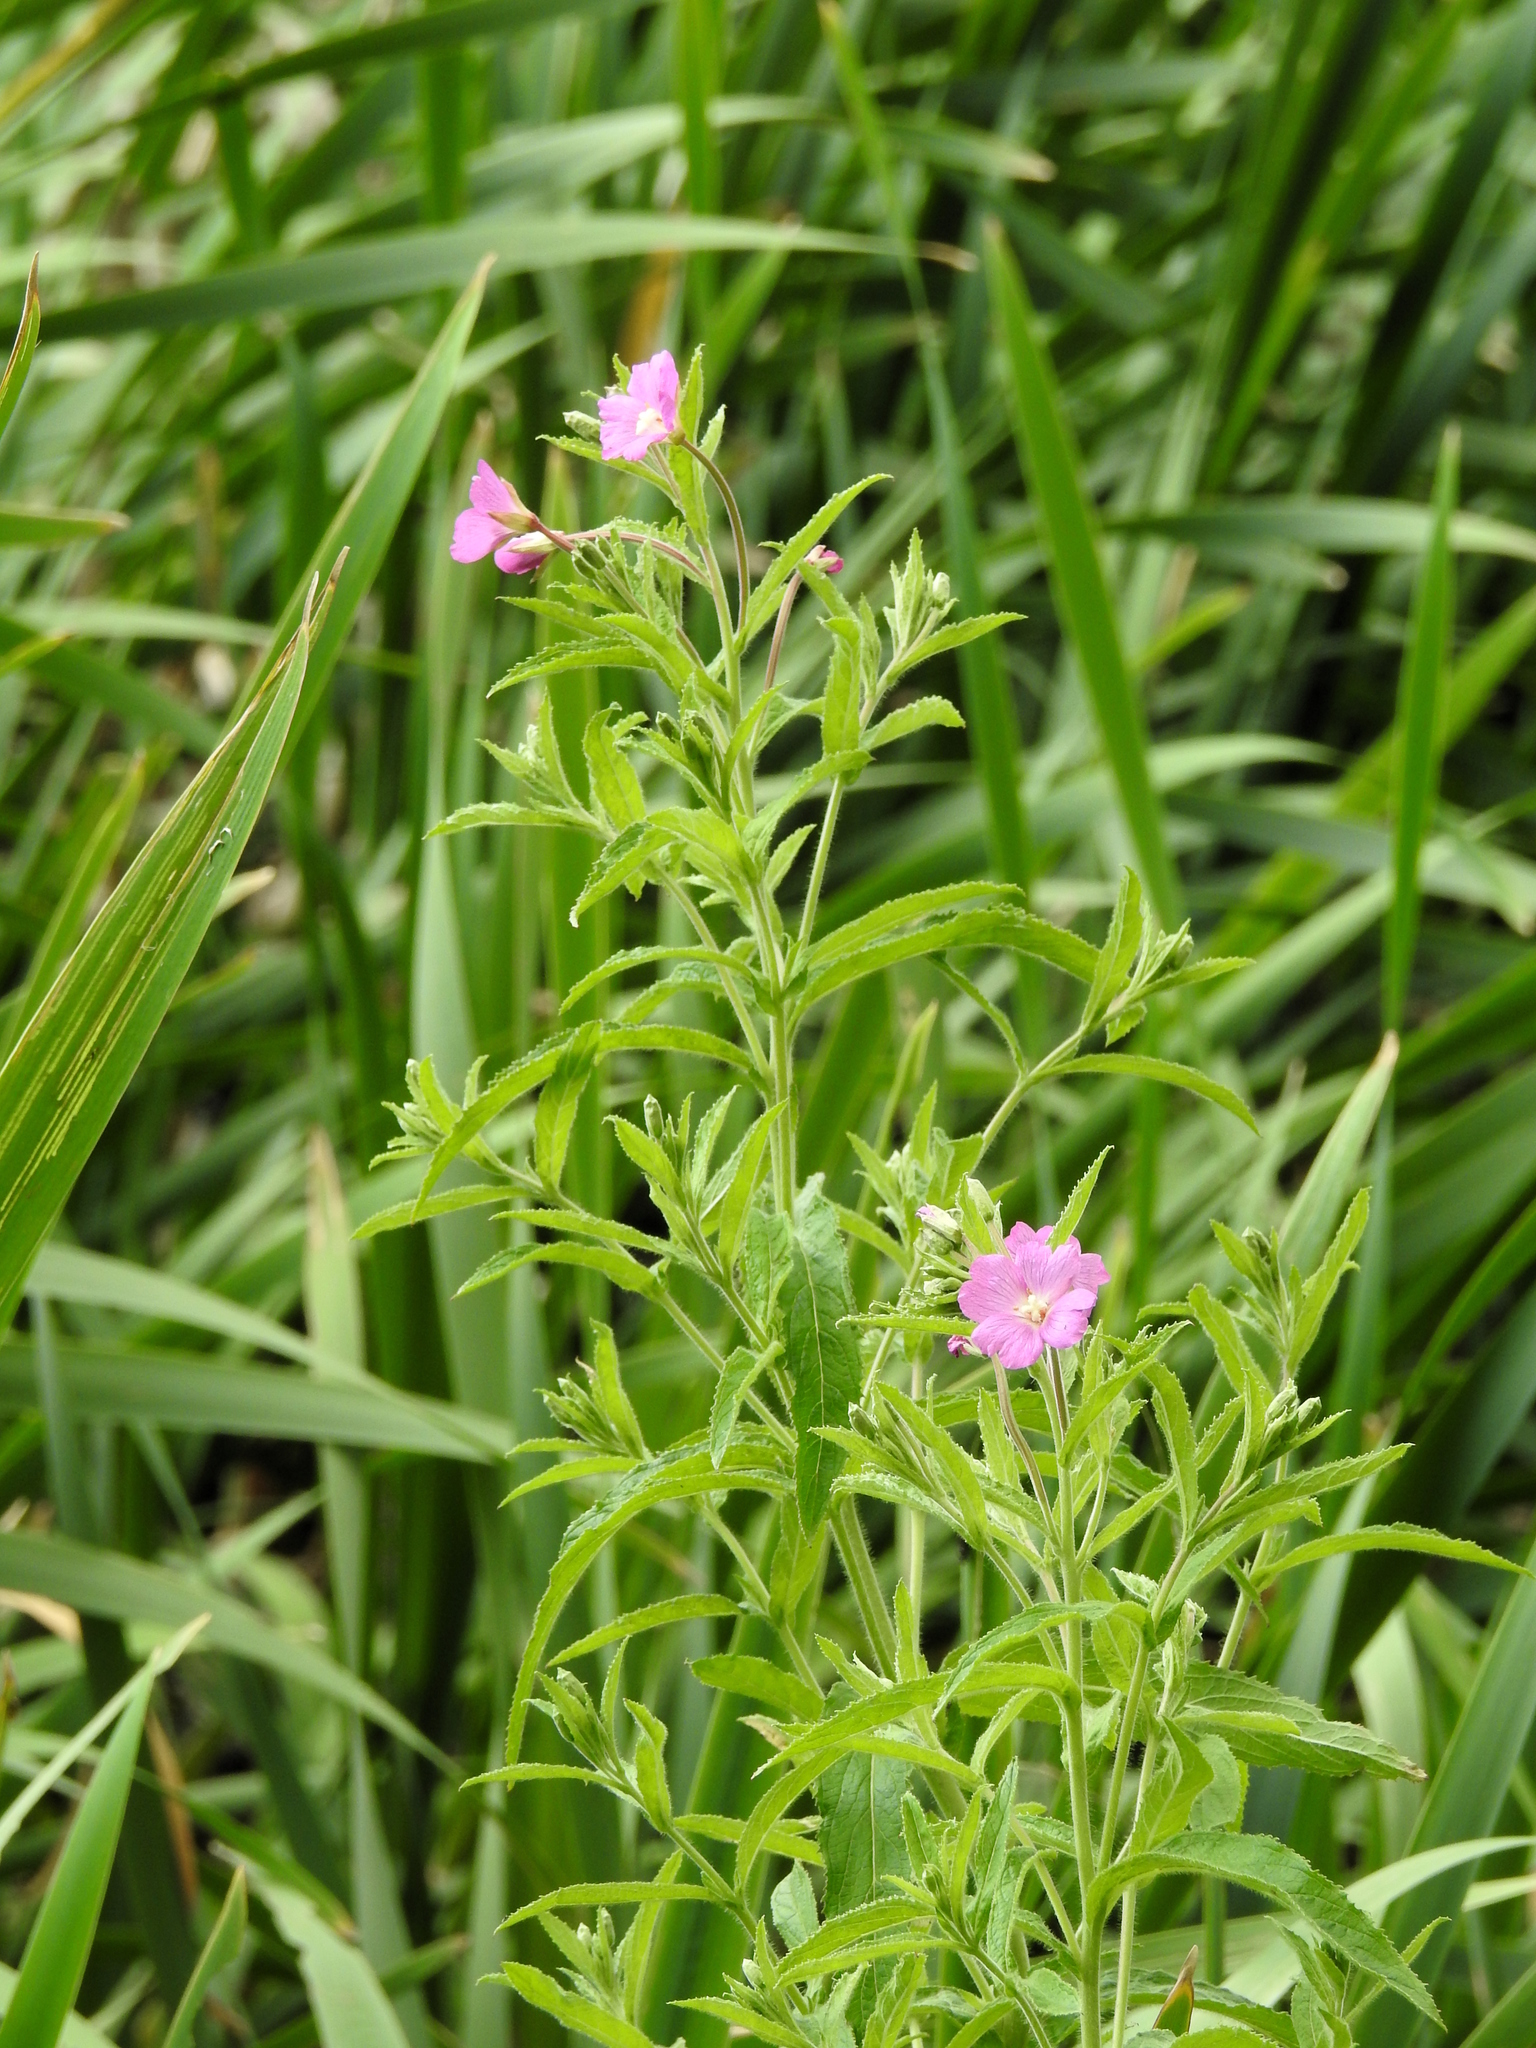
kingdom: Plantae
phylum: Tracheophyta
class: Magnoliopsida
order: Myrtales
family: Onagraceae
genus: Epilobium
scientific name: Epilobium hirsutum
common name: Great willowherb
